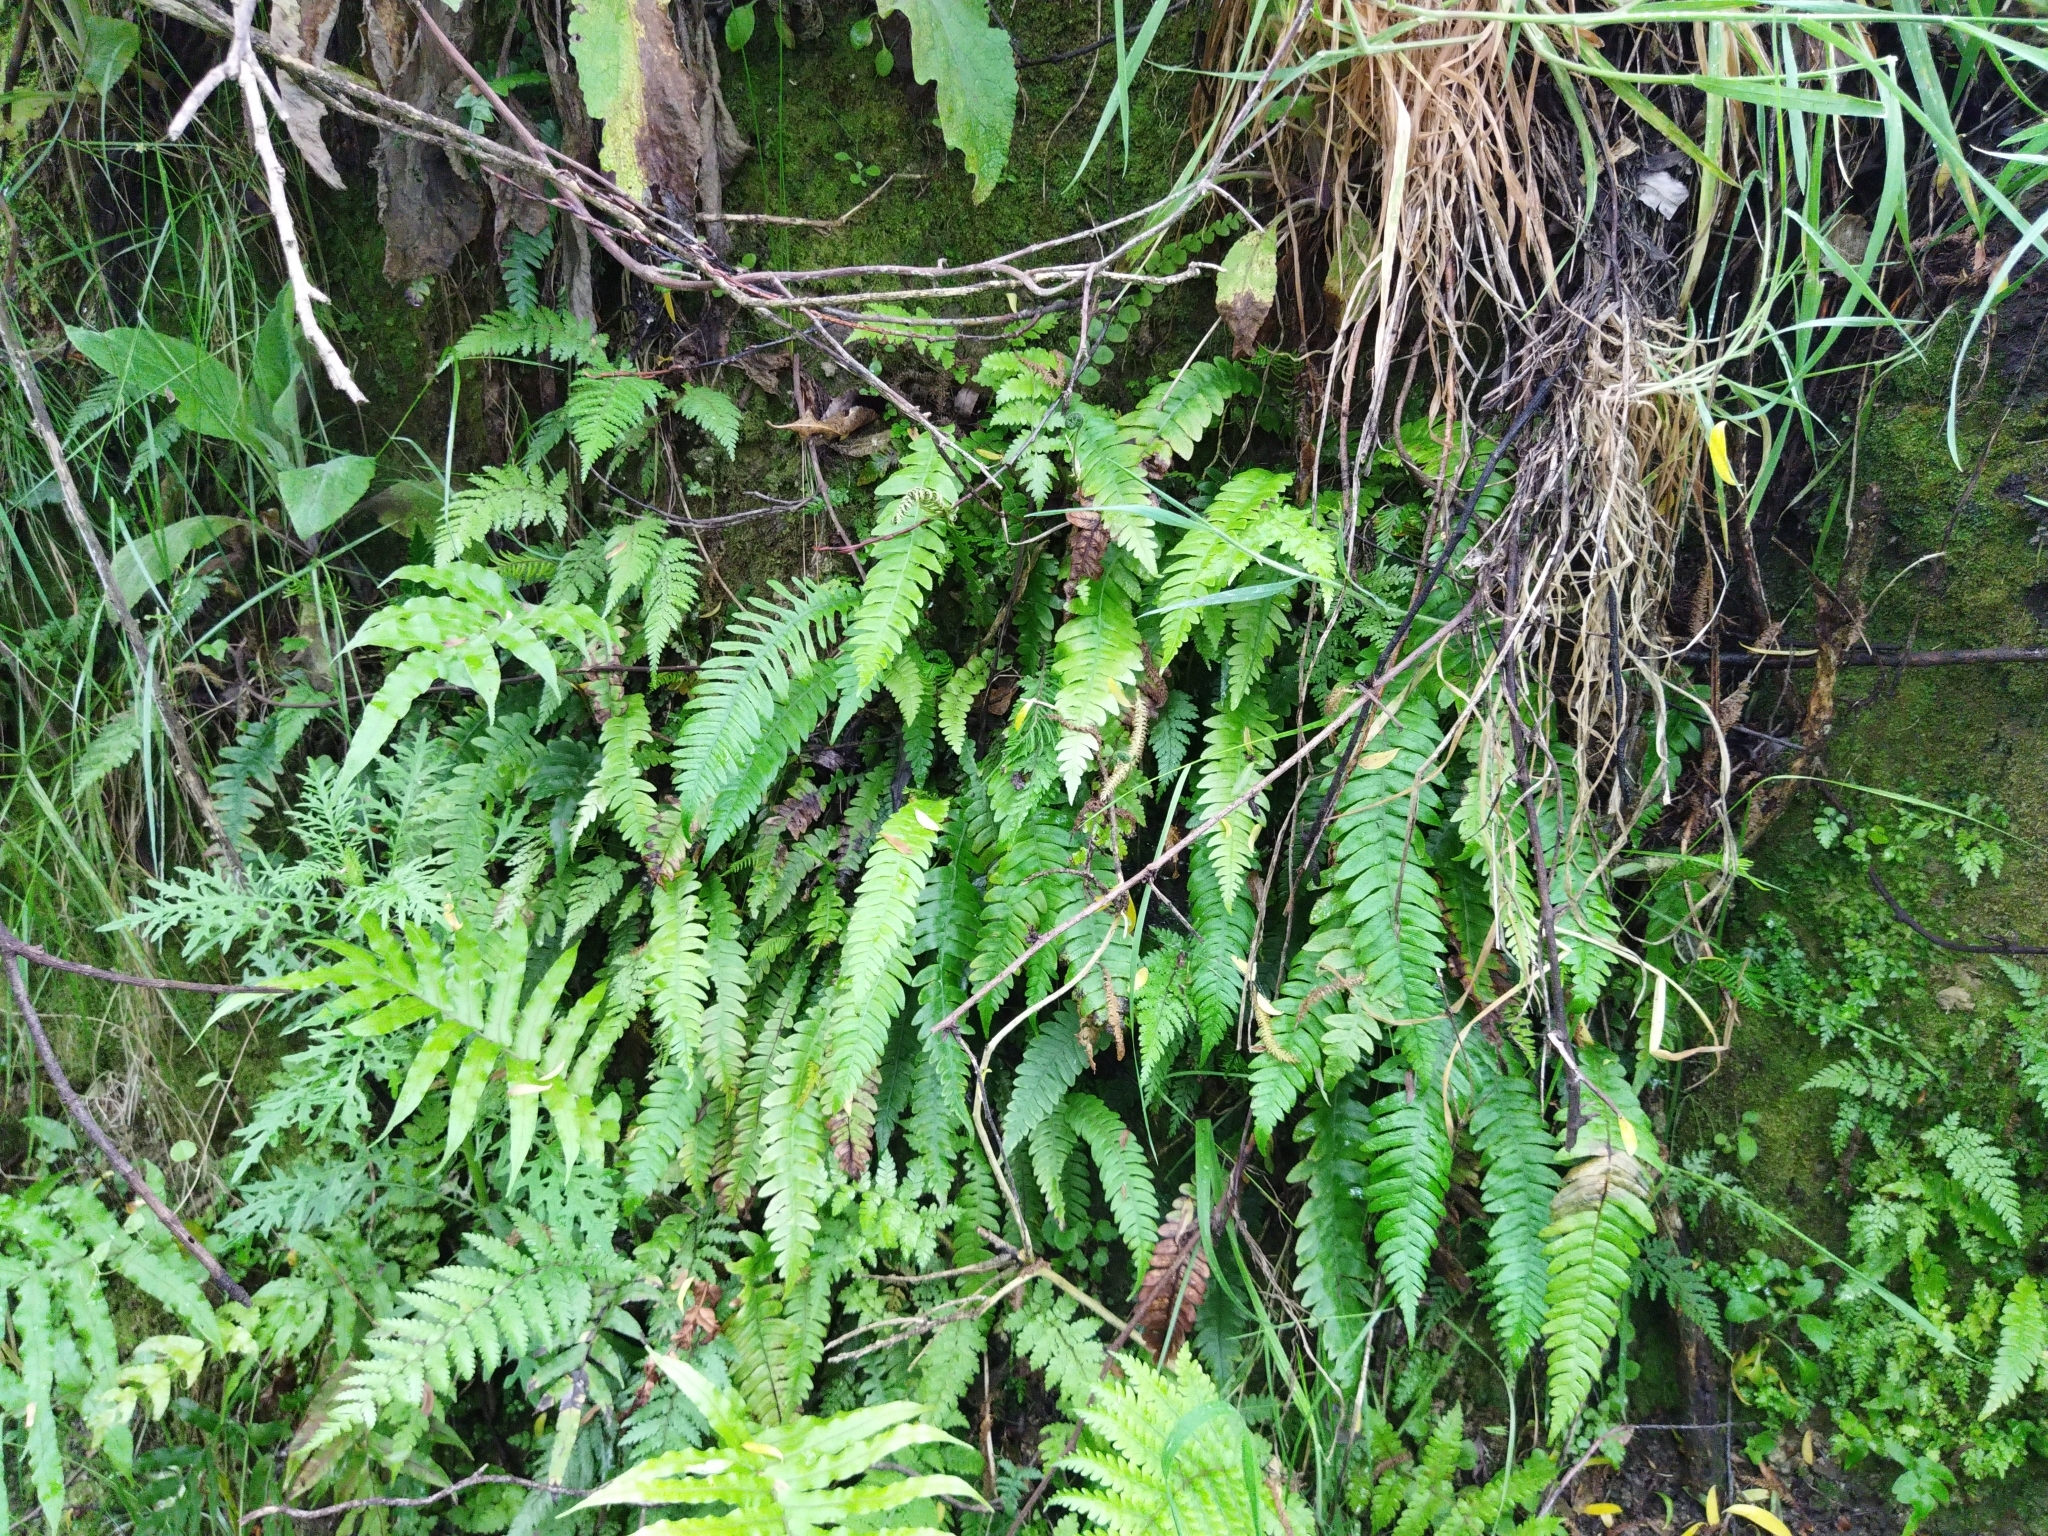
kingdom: Plantae
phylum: Tracheophyta
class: Polypodiopsida
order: Polypodiales
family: Blechnaceae
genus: Austroblechnum
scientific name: Austroblechnum lanceolatum
